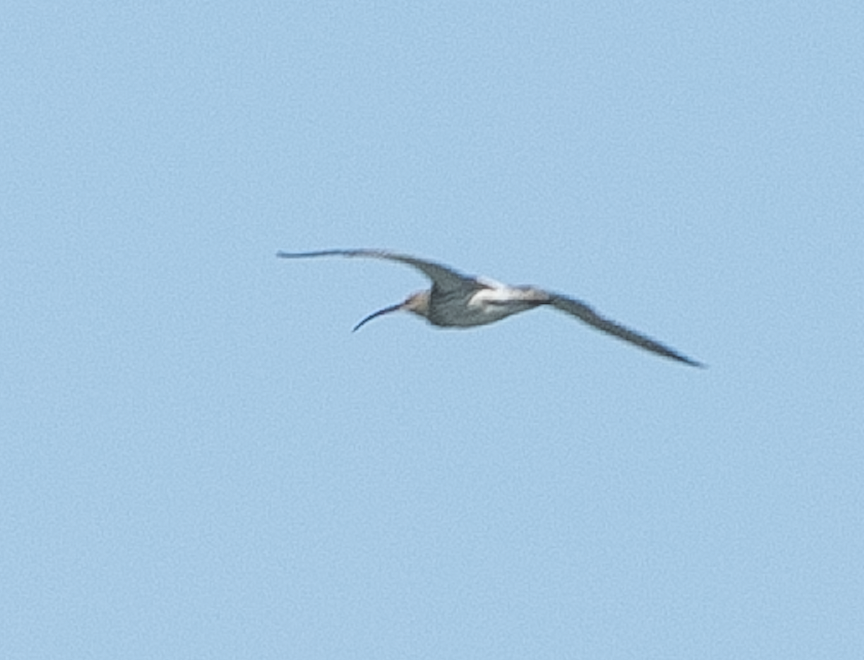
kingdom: Animalia
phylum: Chordata
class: Aves
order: Charadriiformes
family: Scolopacidae
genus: Numenius
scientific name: Numenius arquata
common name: Eurasian curlew
